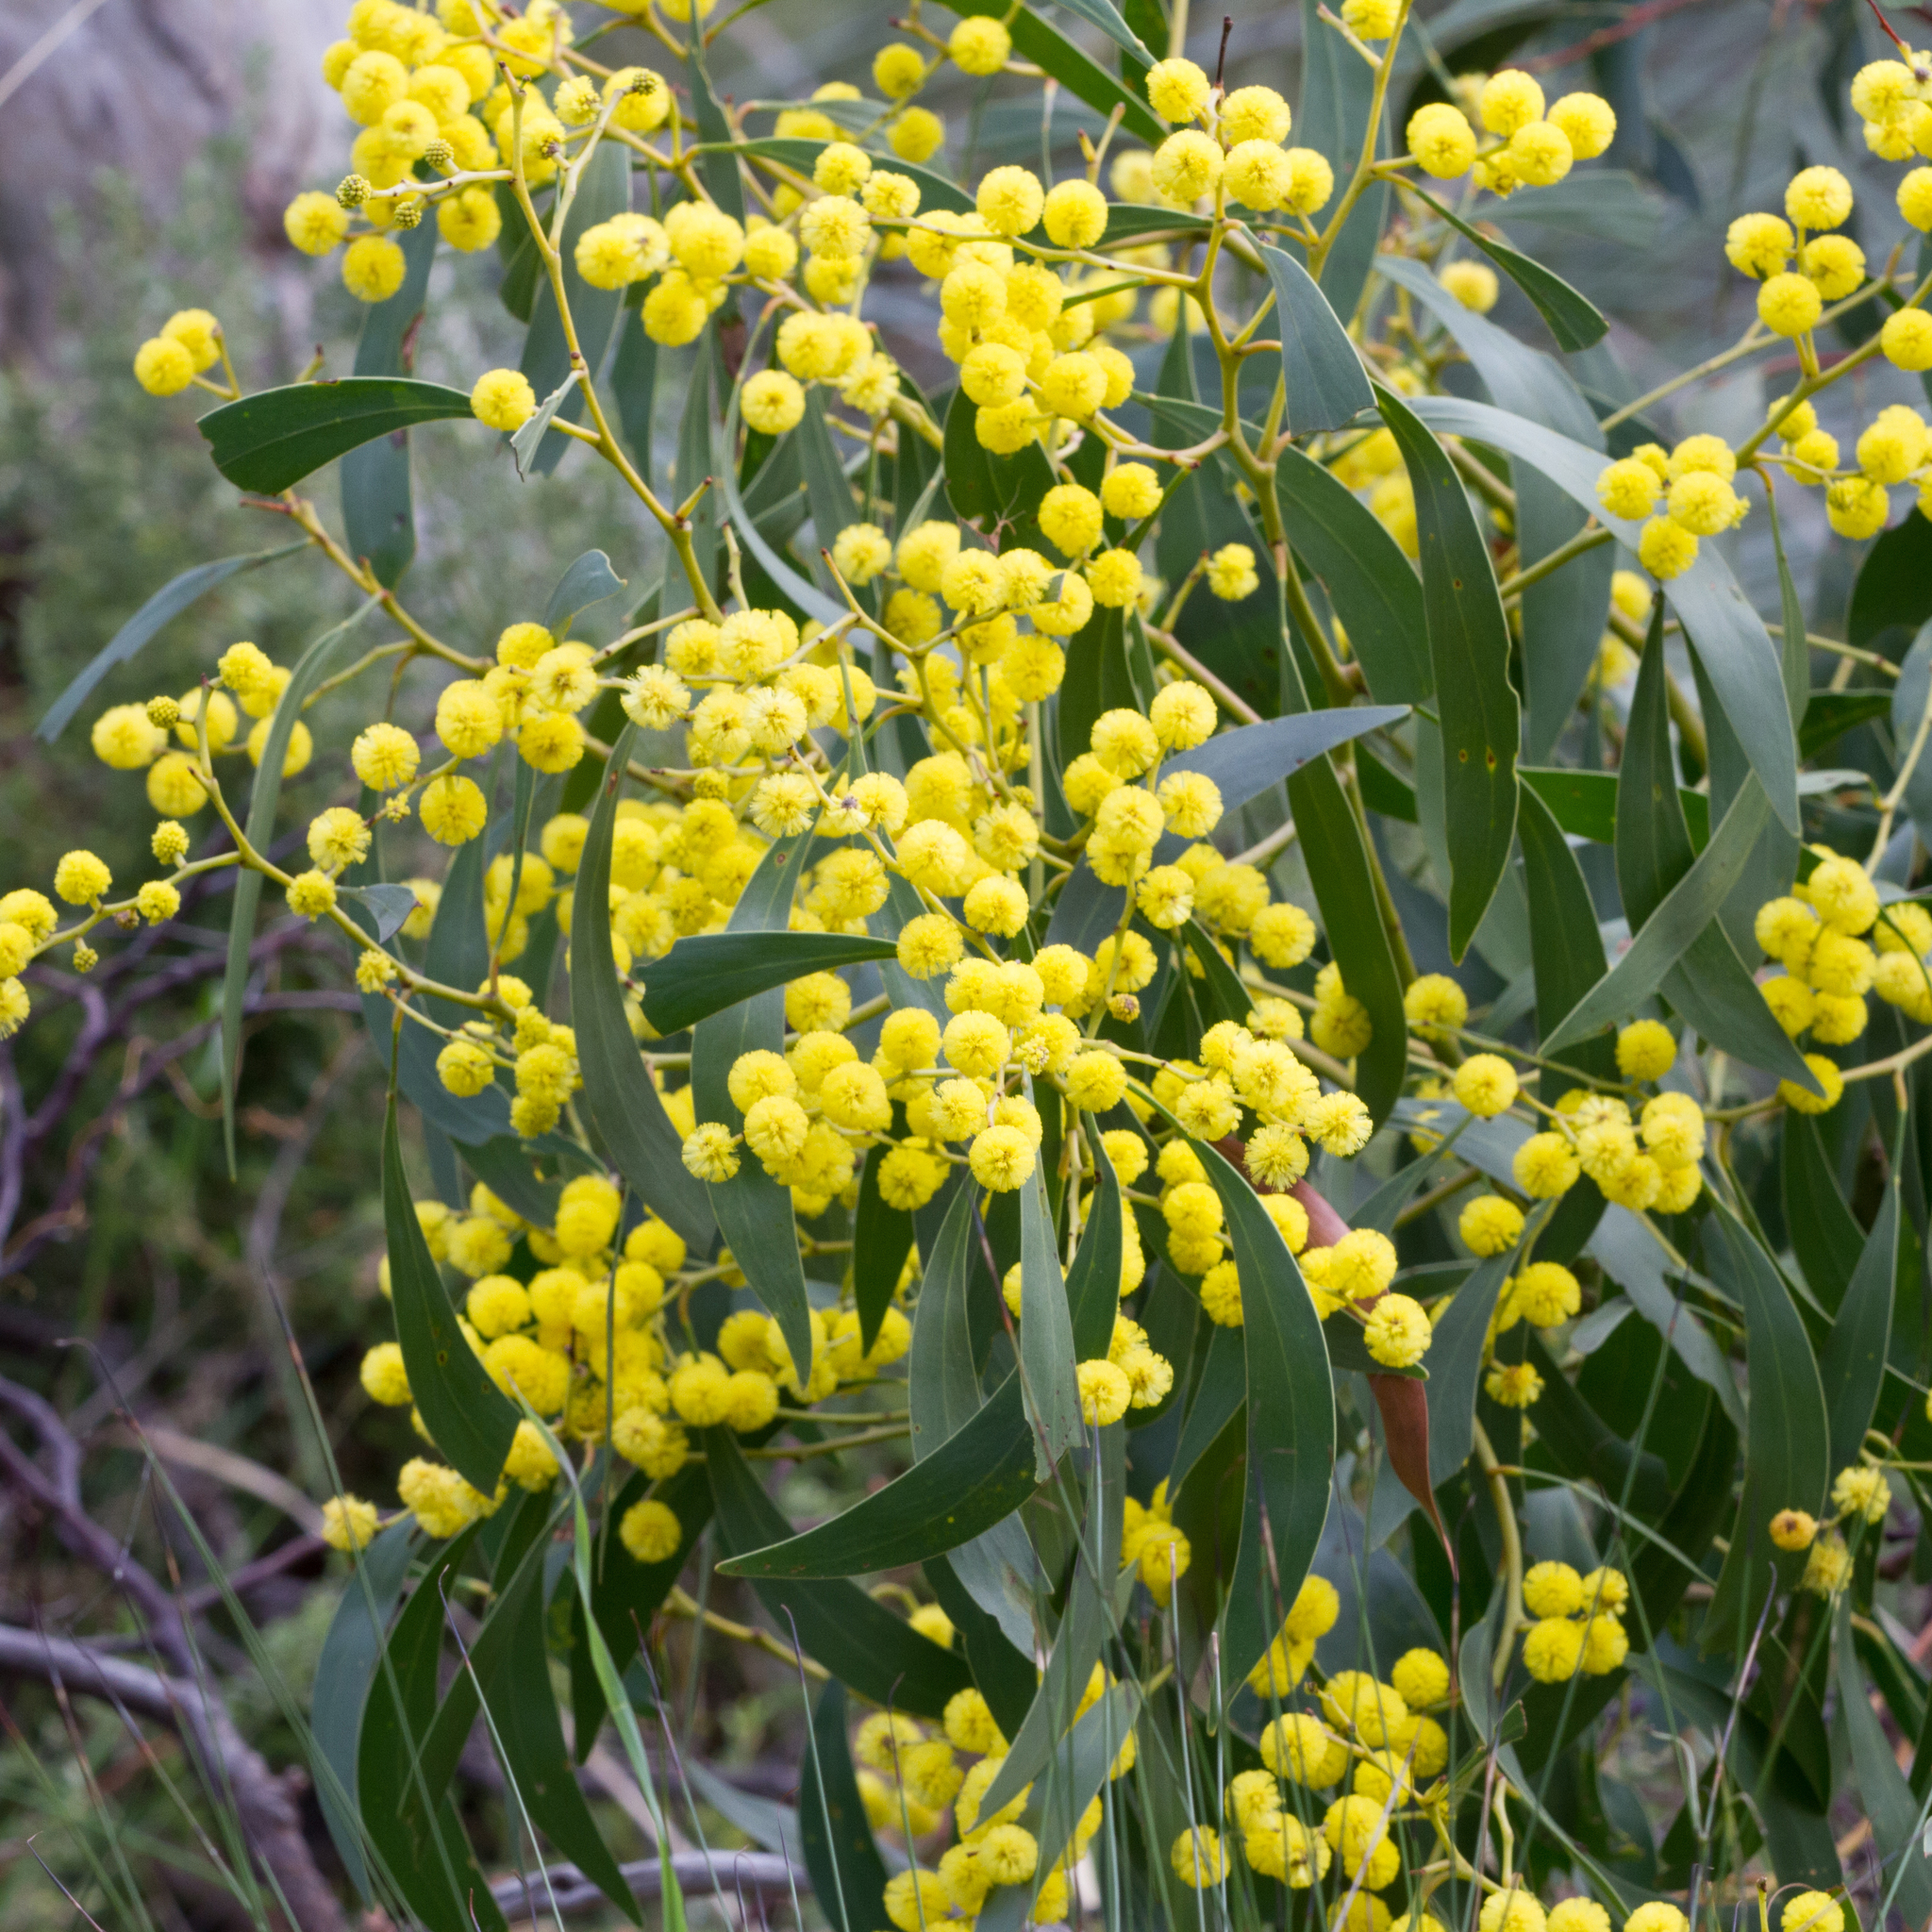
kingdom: Plantae
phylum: Tracheophyta
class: Magnoliopsida
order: Fabales
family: Fabaceae
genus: Acacia
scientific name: Acacia pycnantha
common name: Golden wattle
